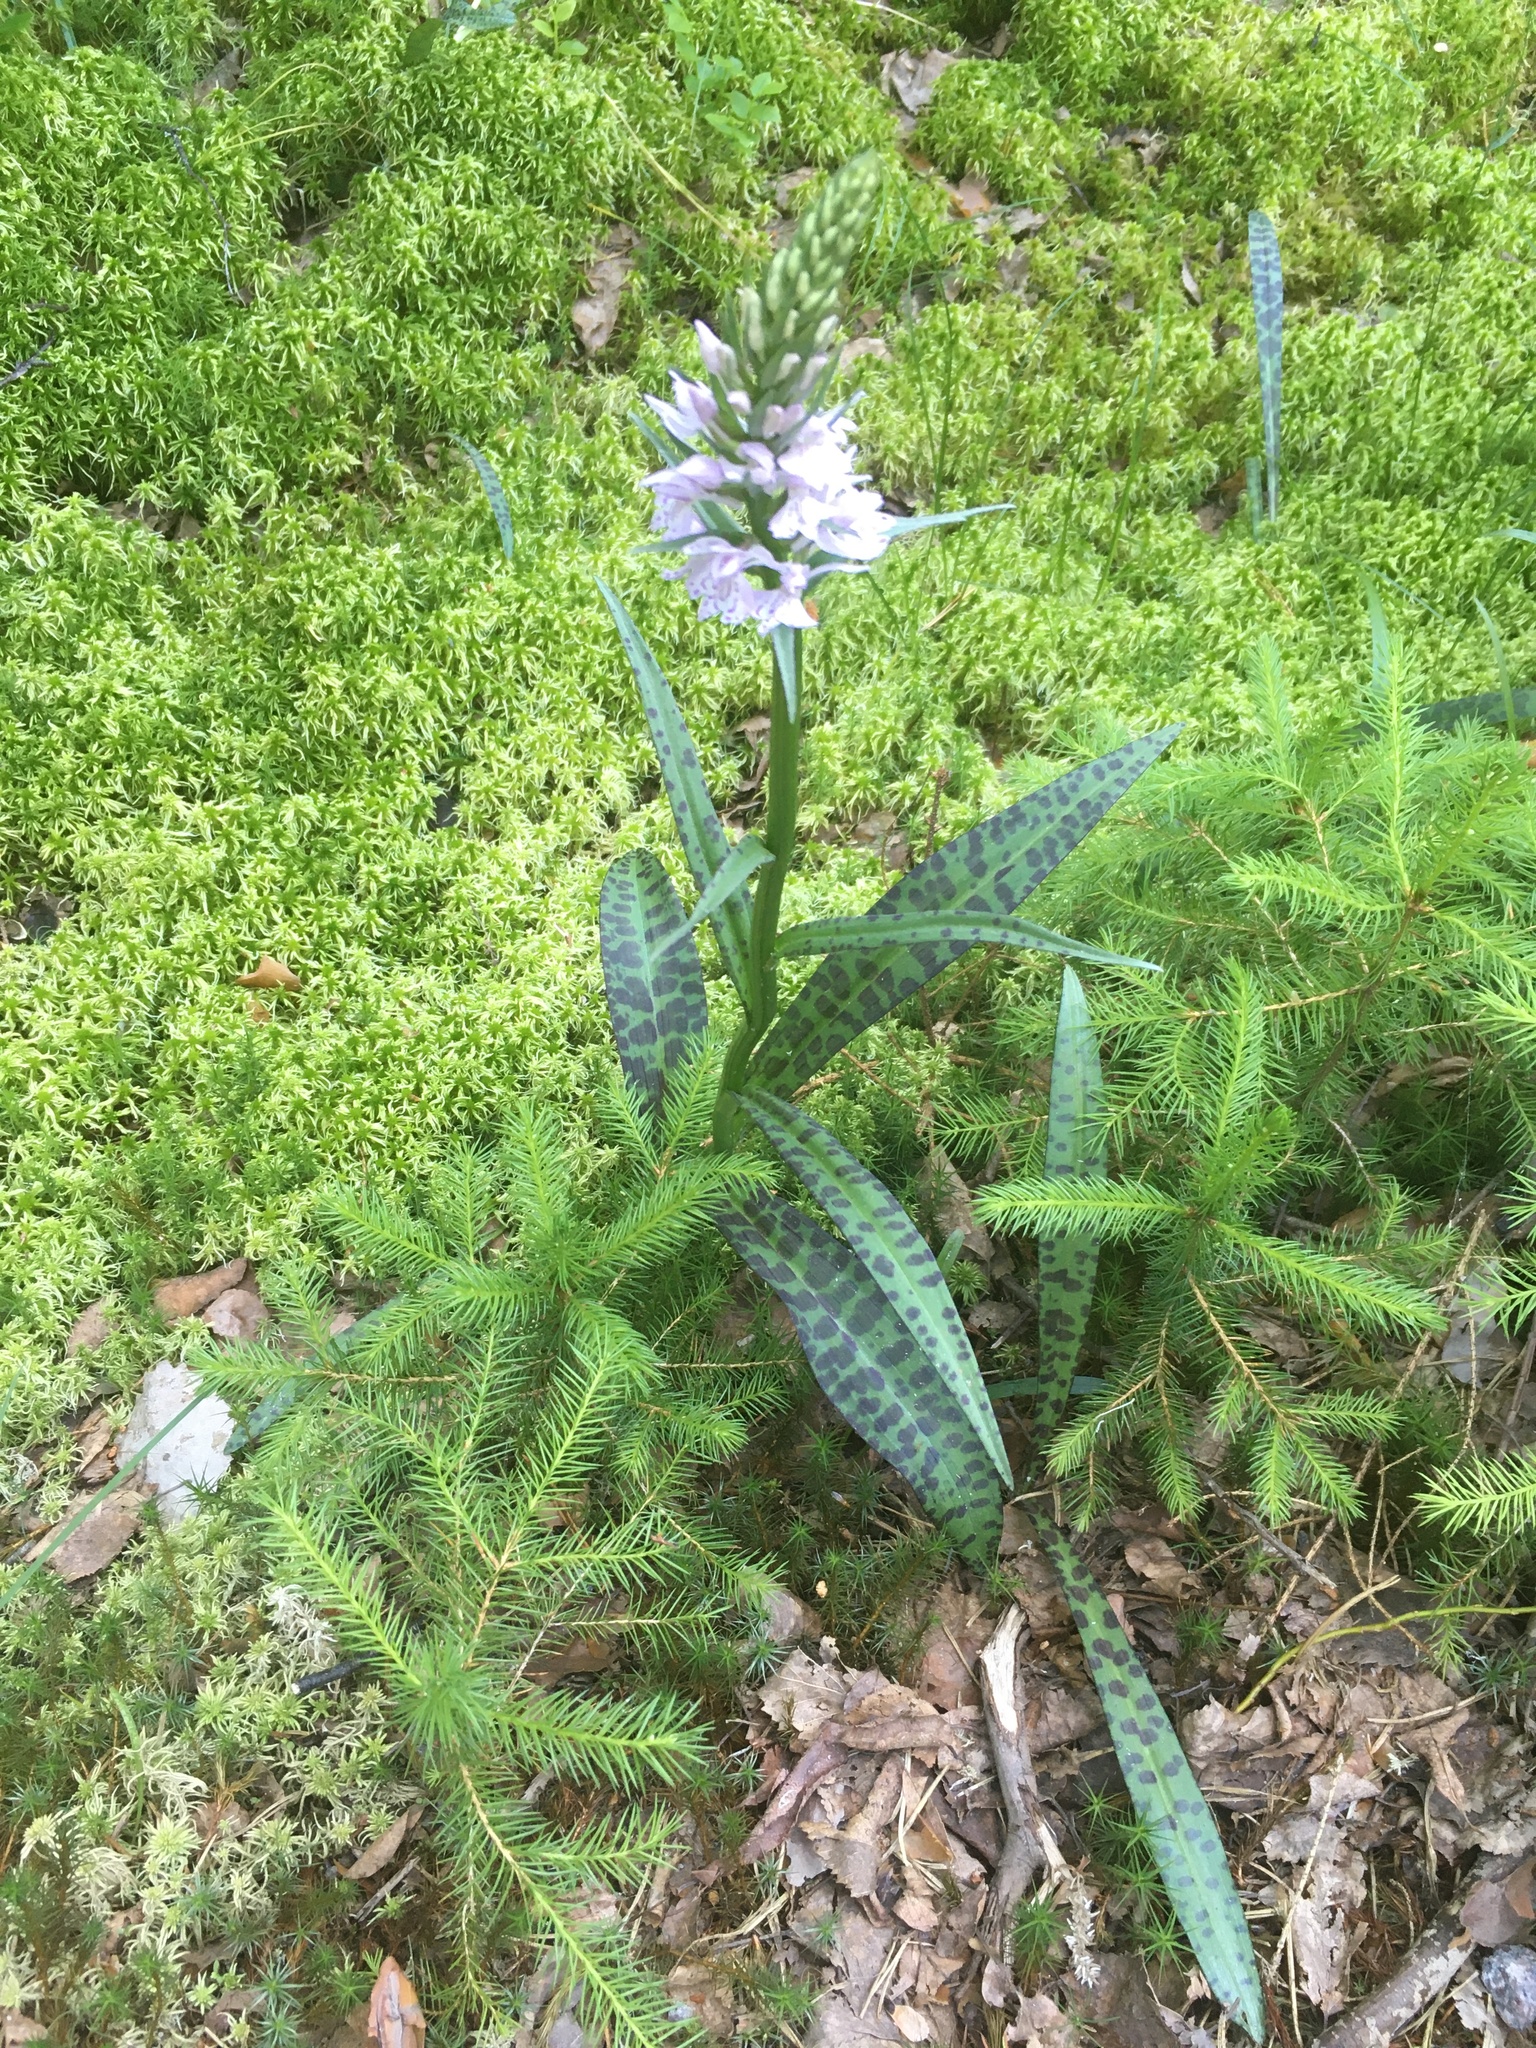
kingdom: Plantae
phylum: Tracheophyta
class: Liliopsida
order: Asparagales
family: Orchidaceae
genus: Dactylorhiza
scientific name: Dactylorhiza maculata
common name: Heath spotted-orchid
